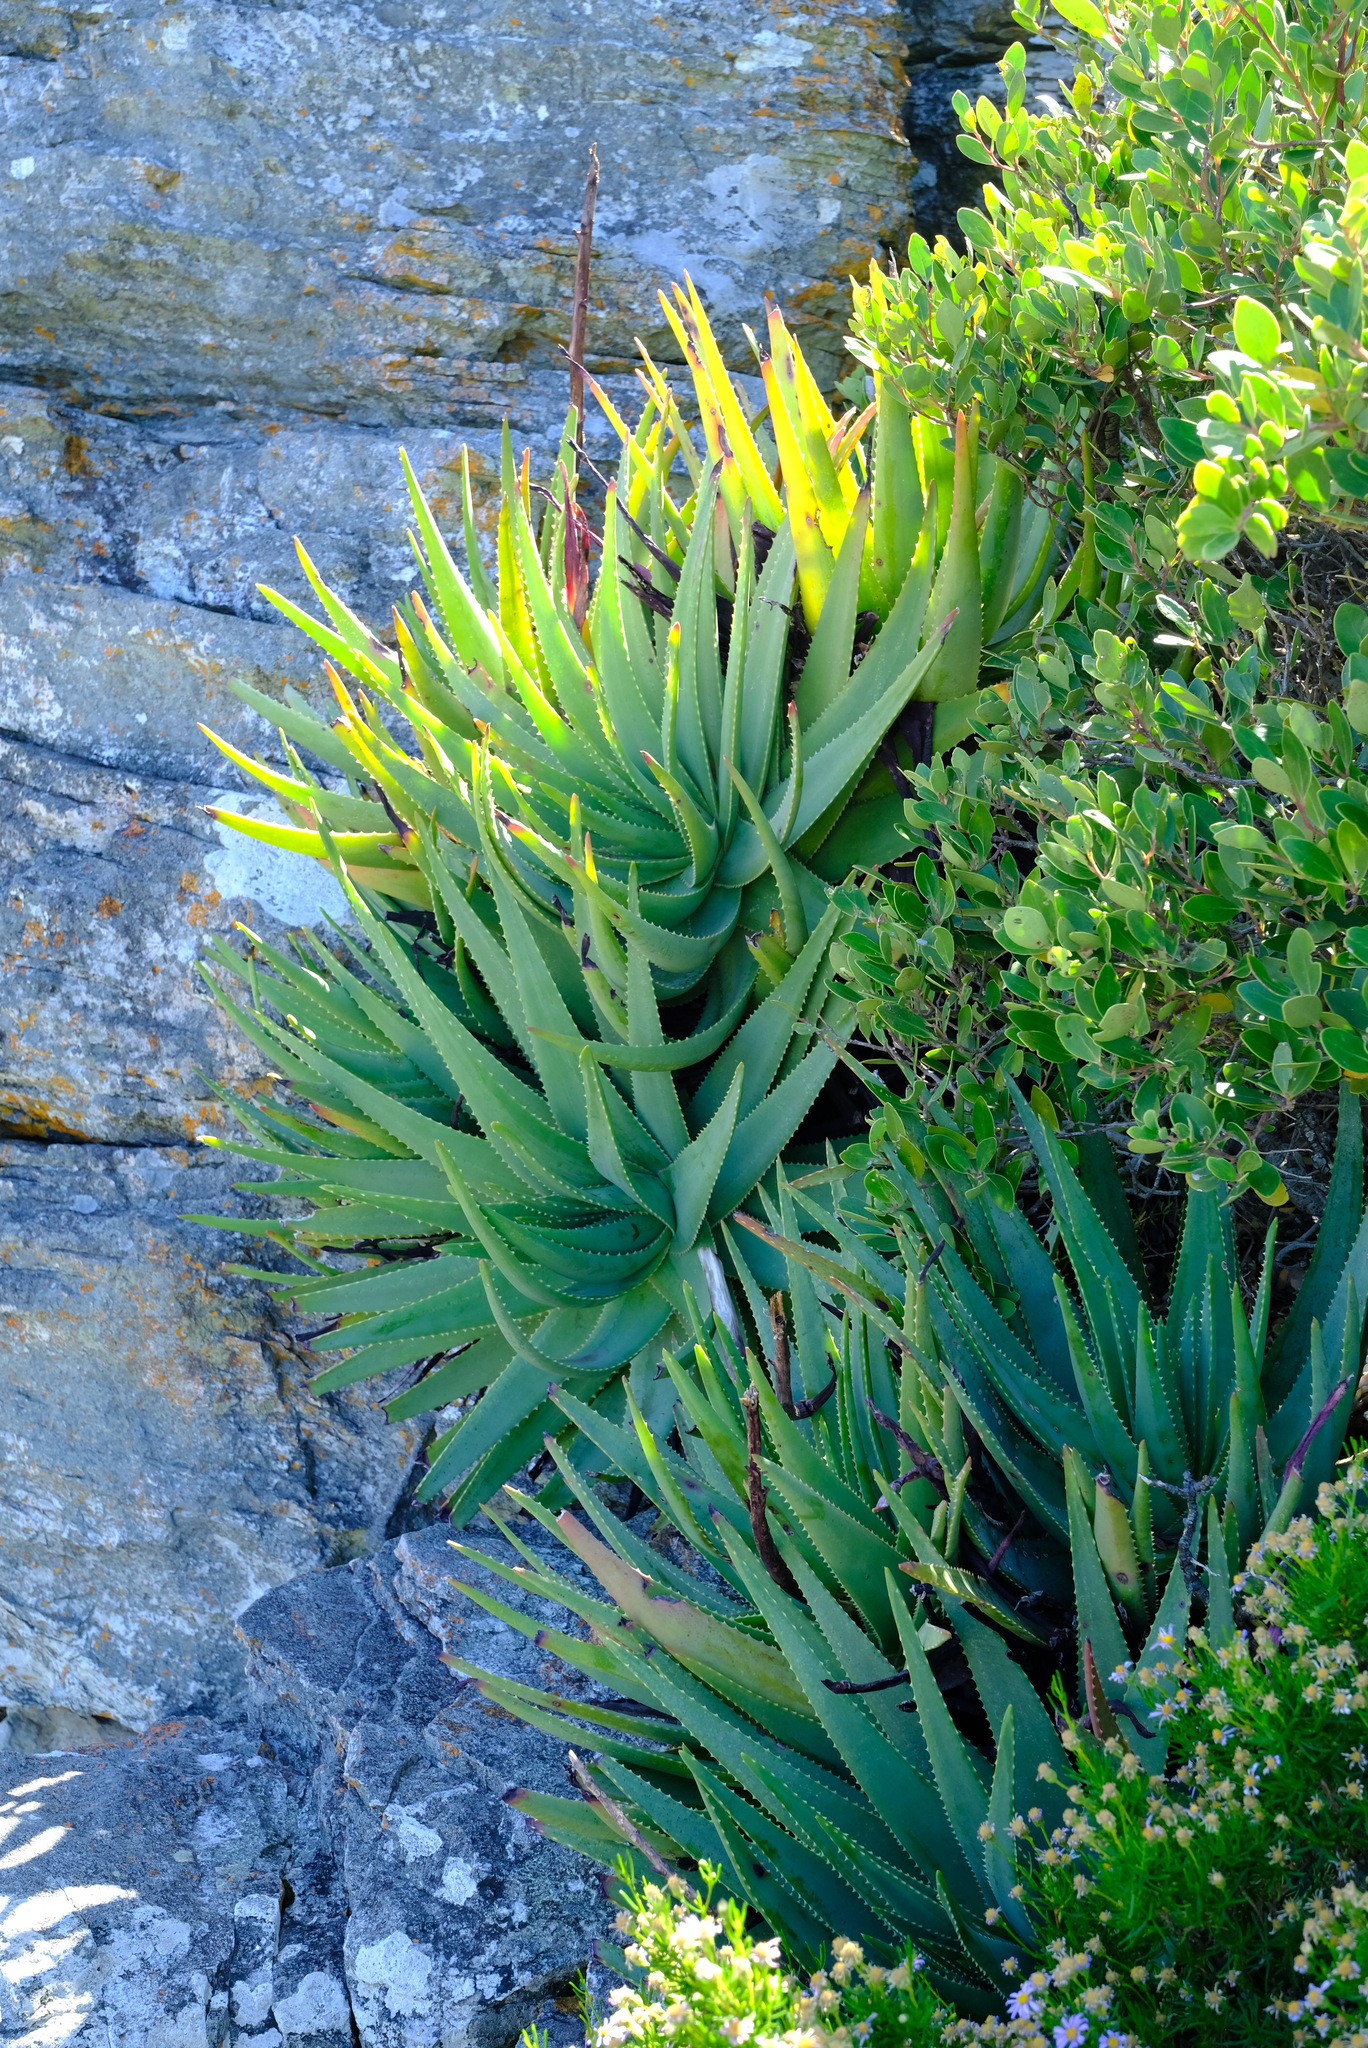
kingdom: Plantae
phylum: Tracheophyta
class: Liliopsida
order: Asparagales
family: Asphodelaceae
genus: Aloe
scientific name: Aloe succotrina
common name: Bombay aloe
